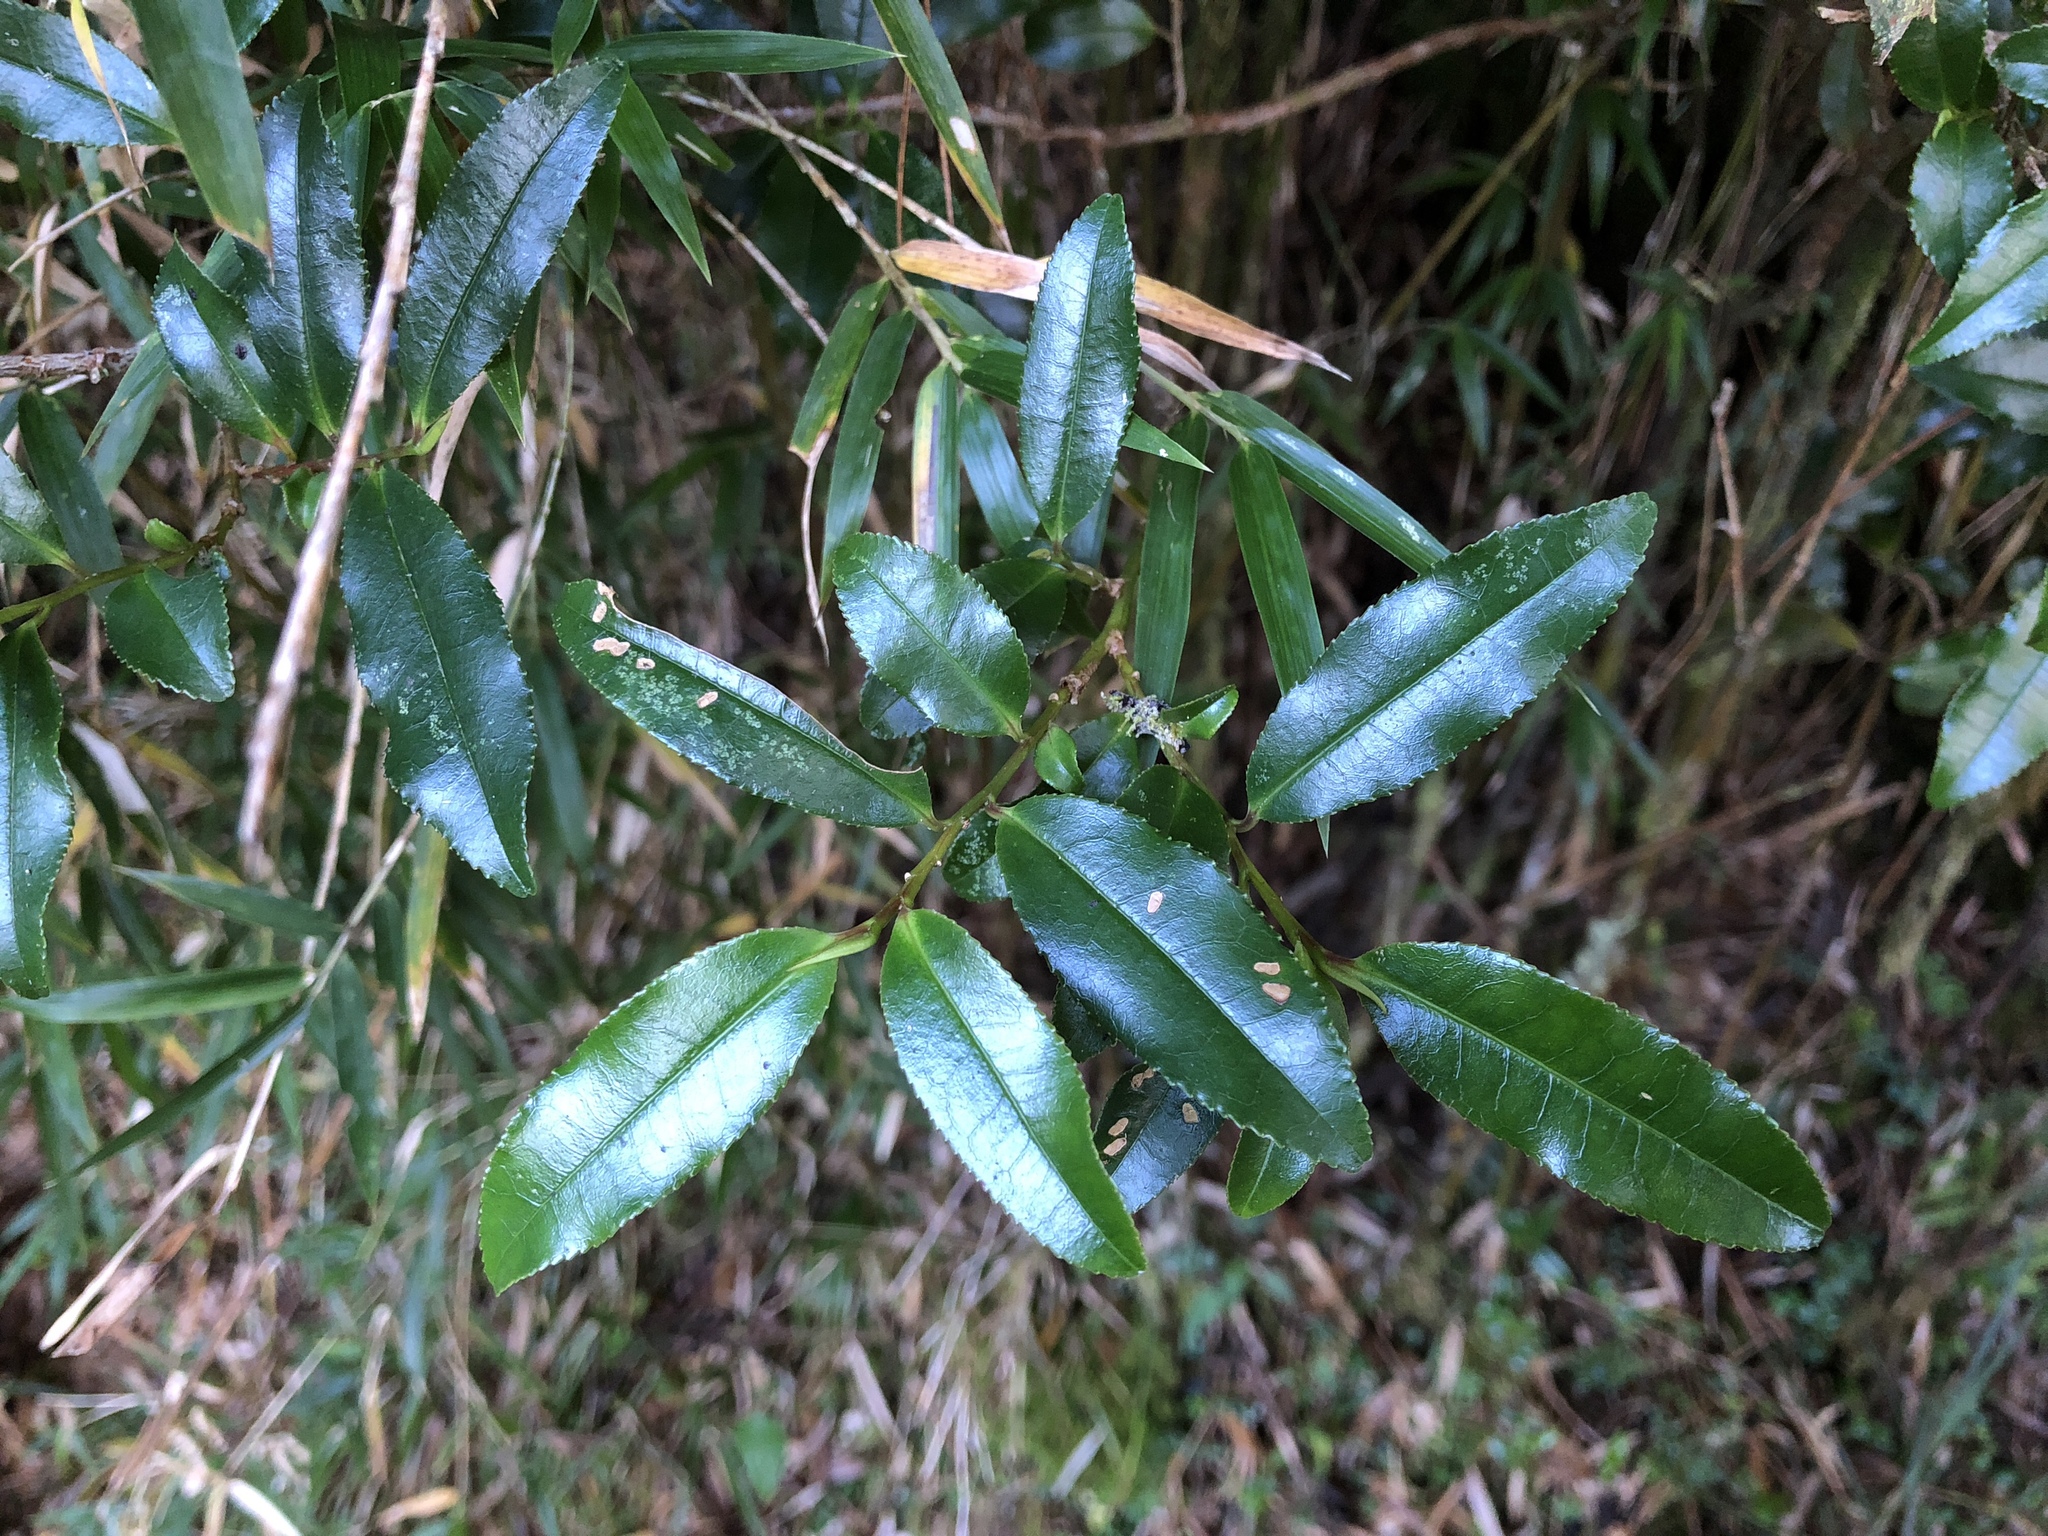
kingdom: Plantae
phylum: Tracheophyta
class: Magnoliopsida
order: Ericales
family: Pentaphylacaceae
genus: Eurya
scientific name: Eurya glaberrima
